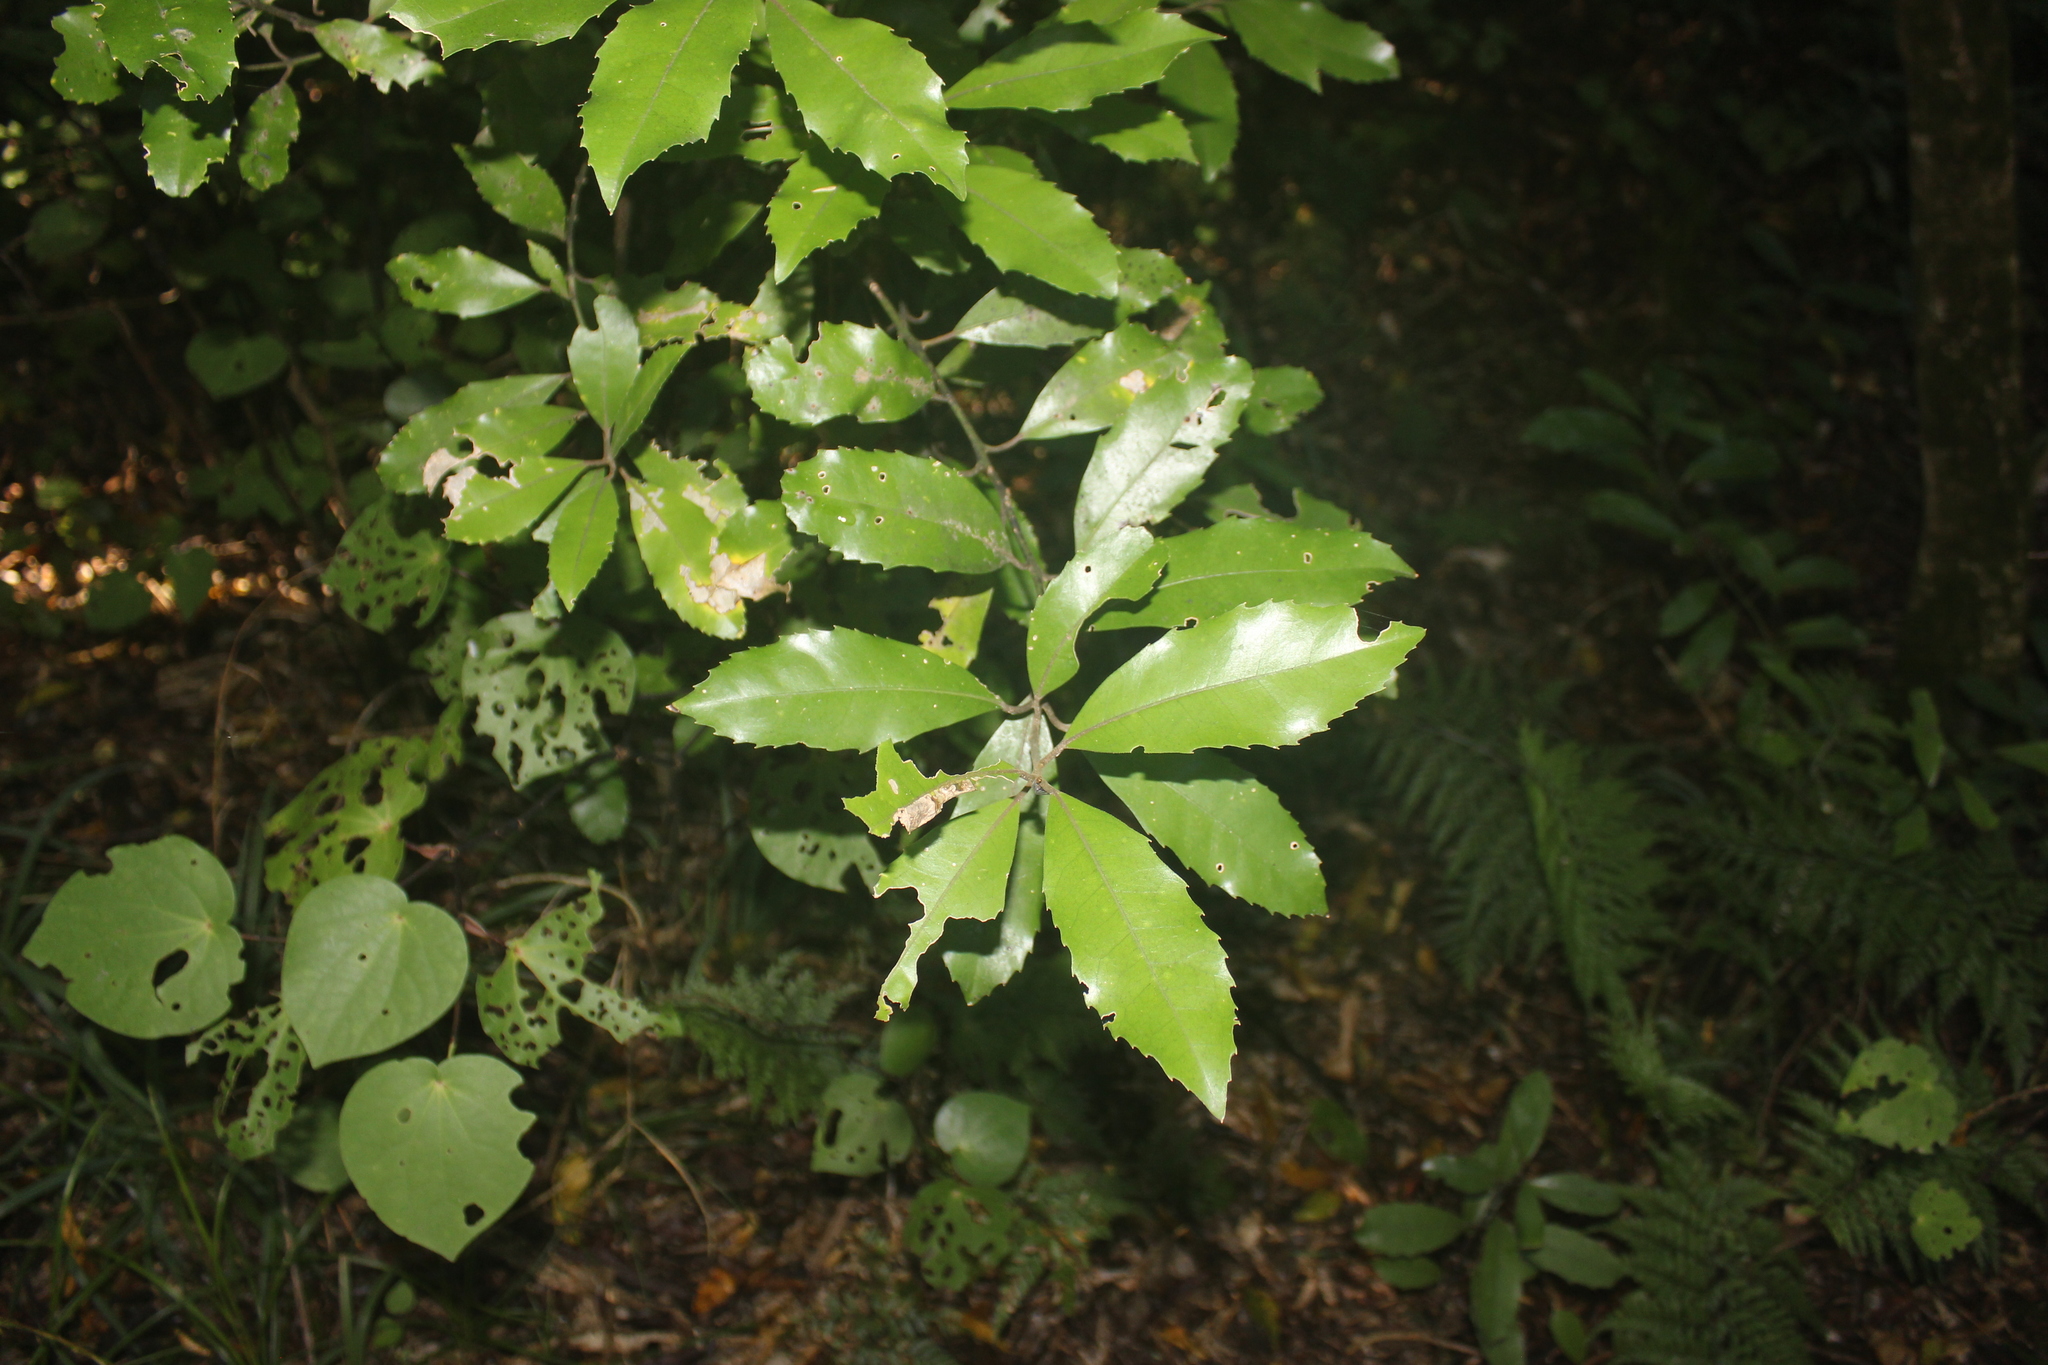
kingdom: Plantae
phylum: Tracheophyta
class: Magnoliopsida
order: Laurales
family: Monimiaceae
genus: Hedycarya
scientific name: Hedycarya arborea
